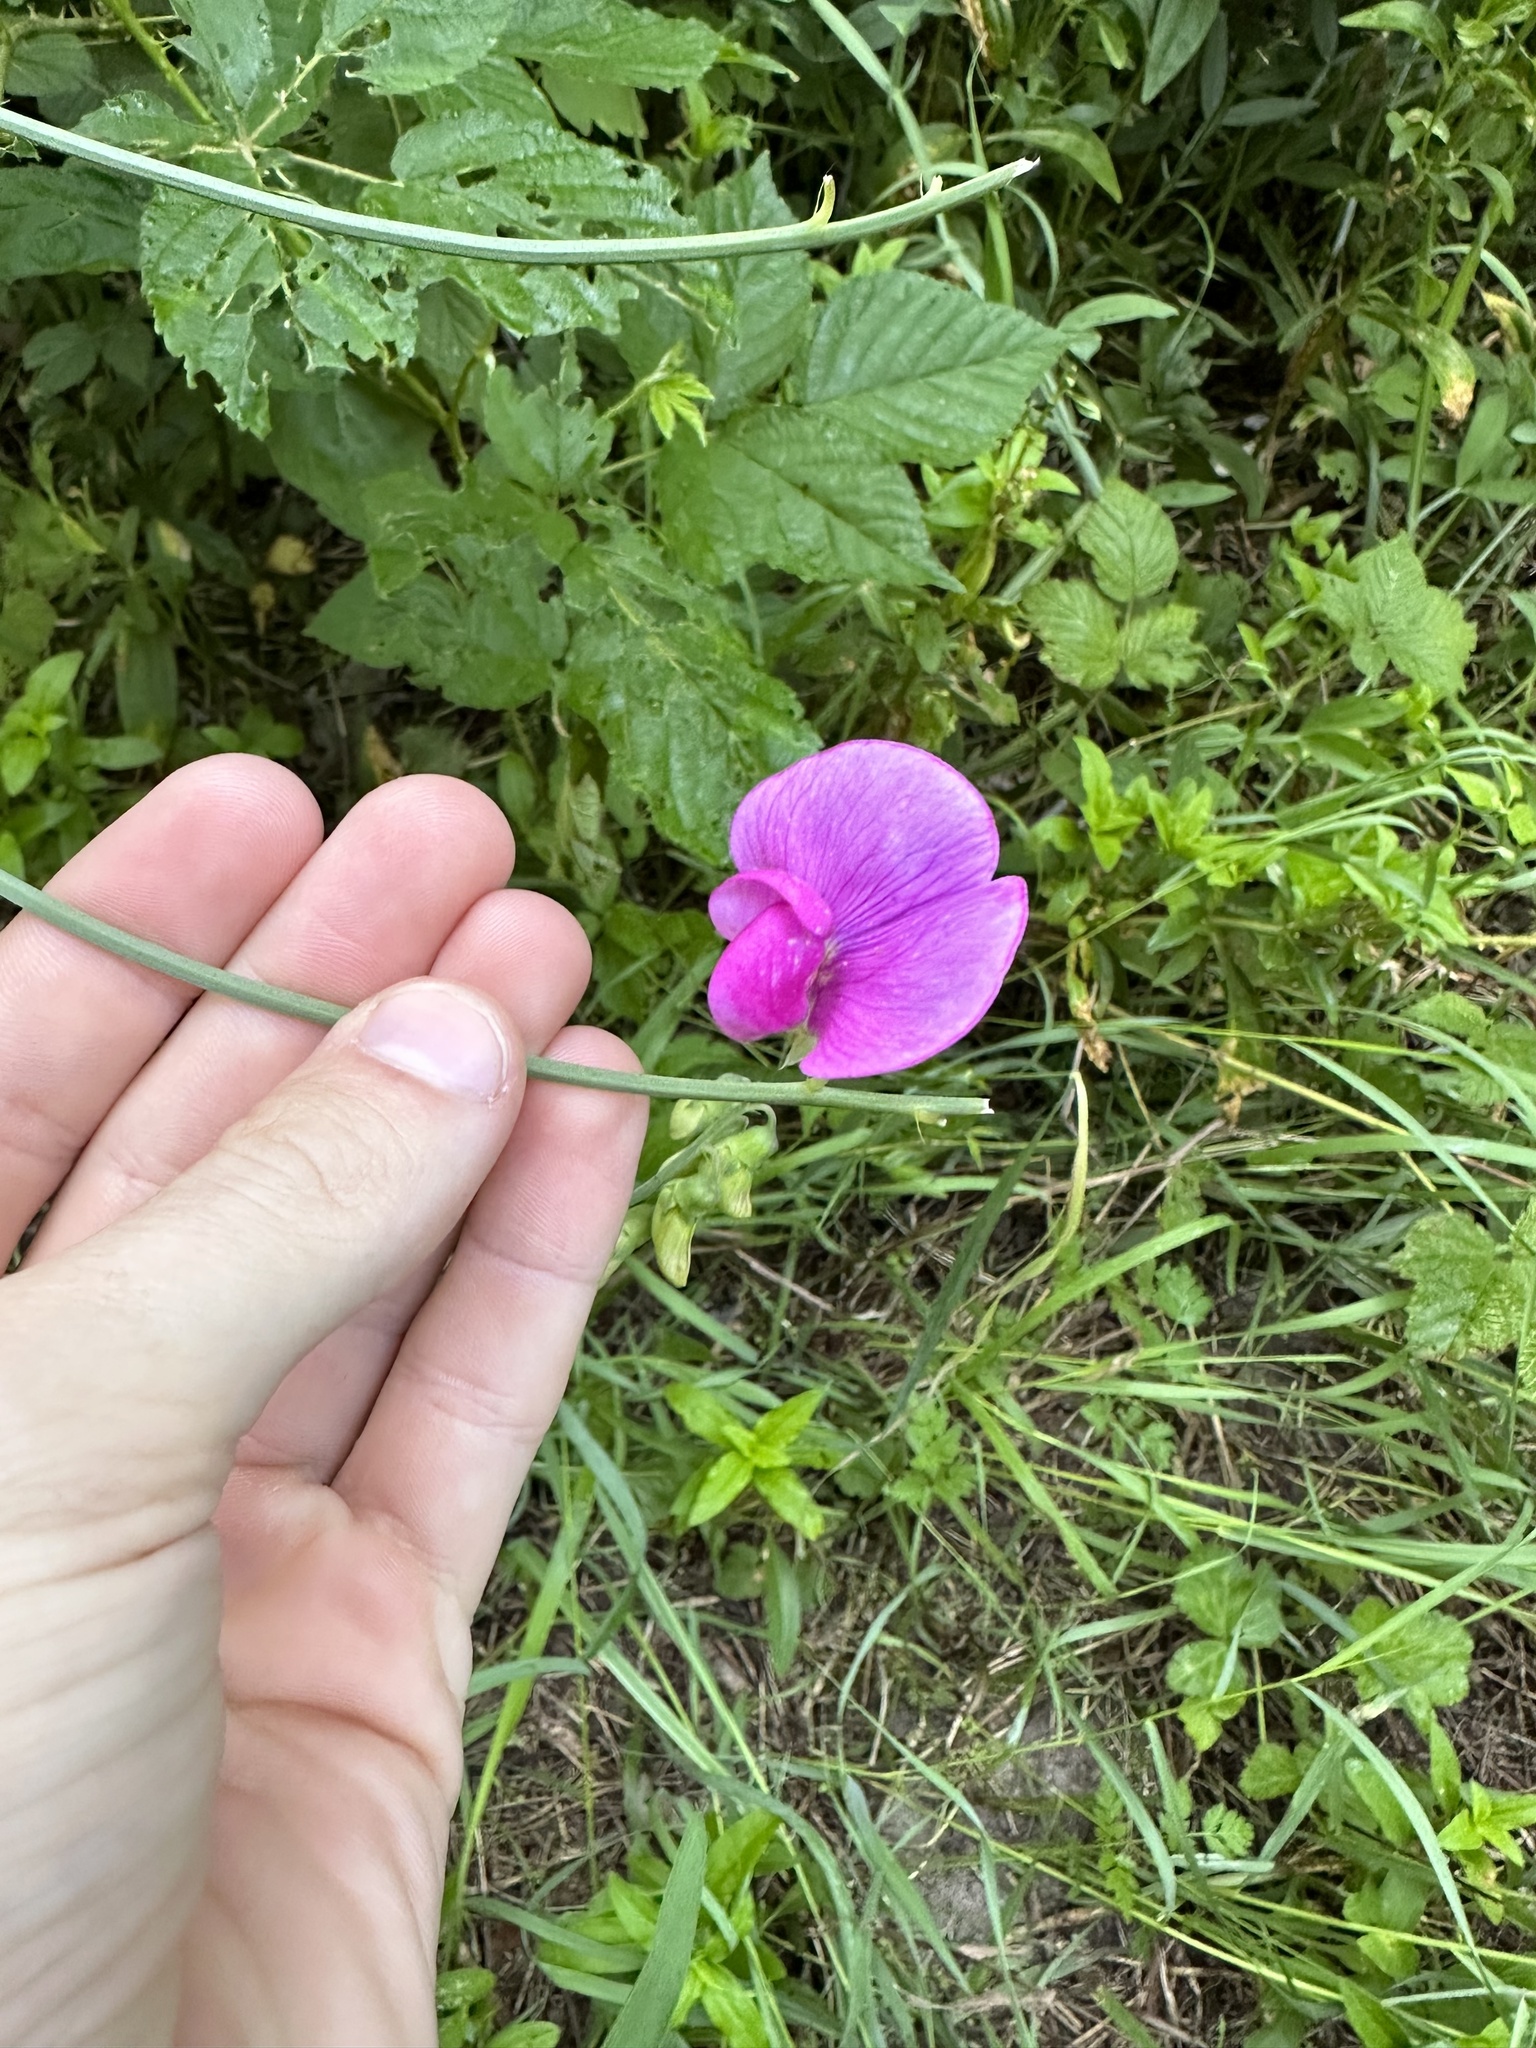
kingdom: Plantae
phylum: Tracheophyta
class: Magnoliopsida
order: Fabales
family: Fabaceae
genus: Lathyrus
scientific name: Lathyrus latifolius
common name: Perennial pea
